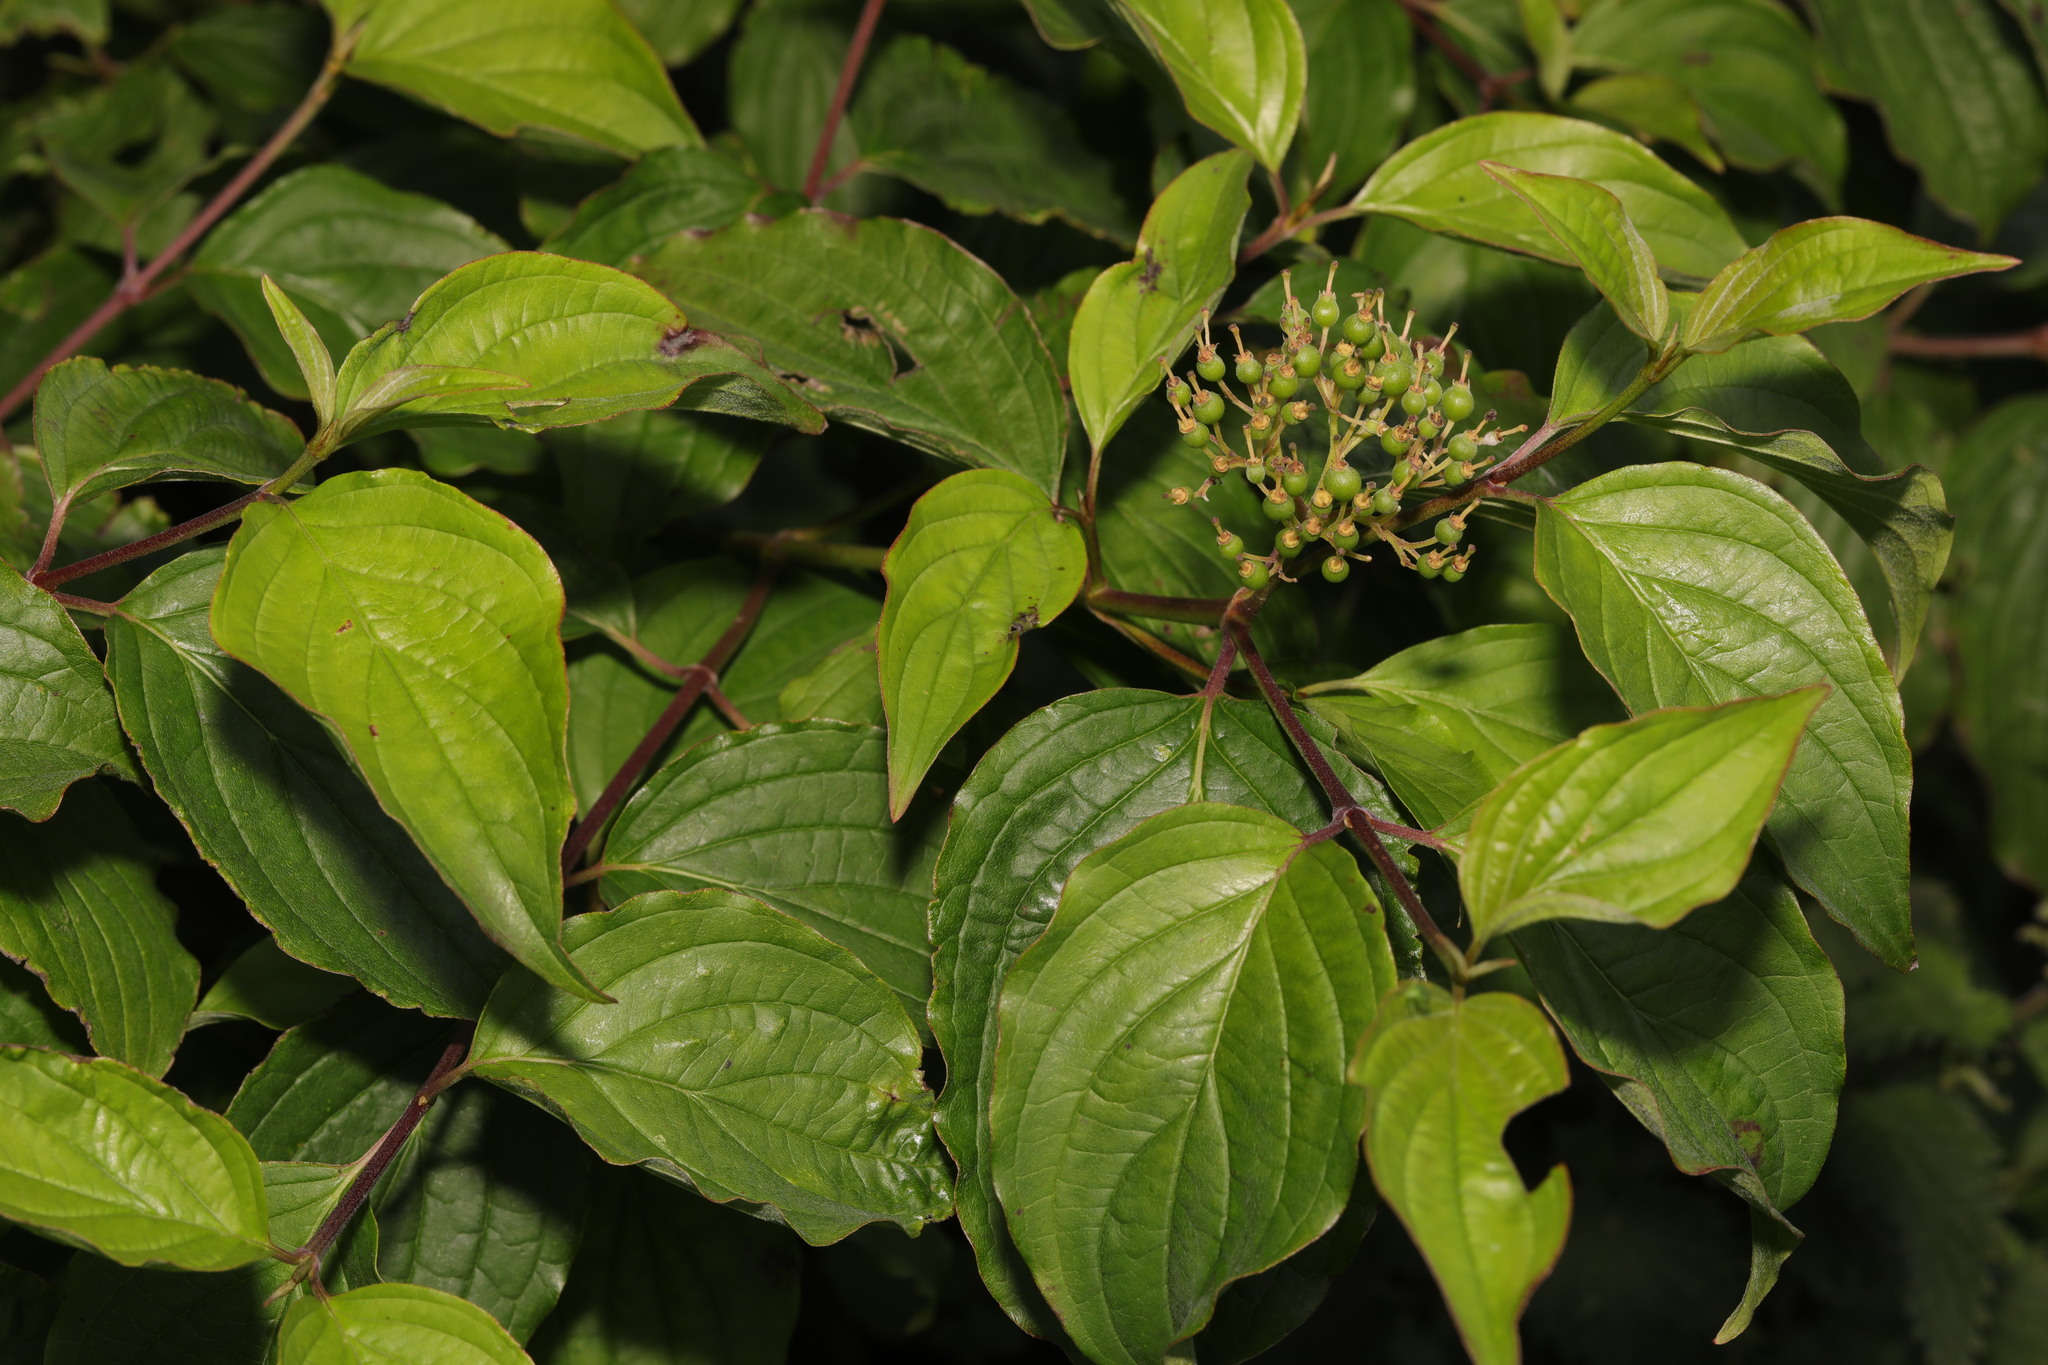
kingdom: Plantae
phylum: Tracheophyta
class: Magnoliopsida
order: Cornales
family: Cornaceae
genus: Cornus
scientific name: Cornus sanguinea
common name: Dogwood
